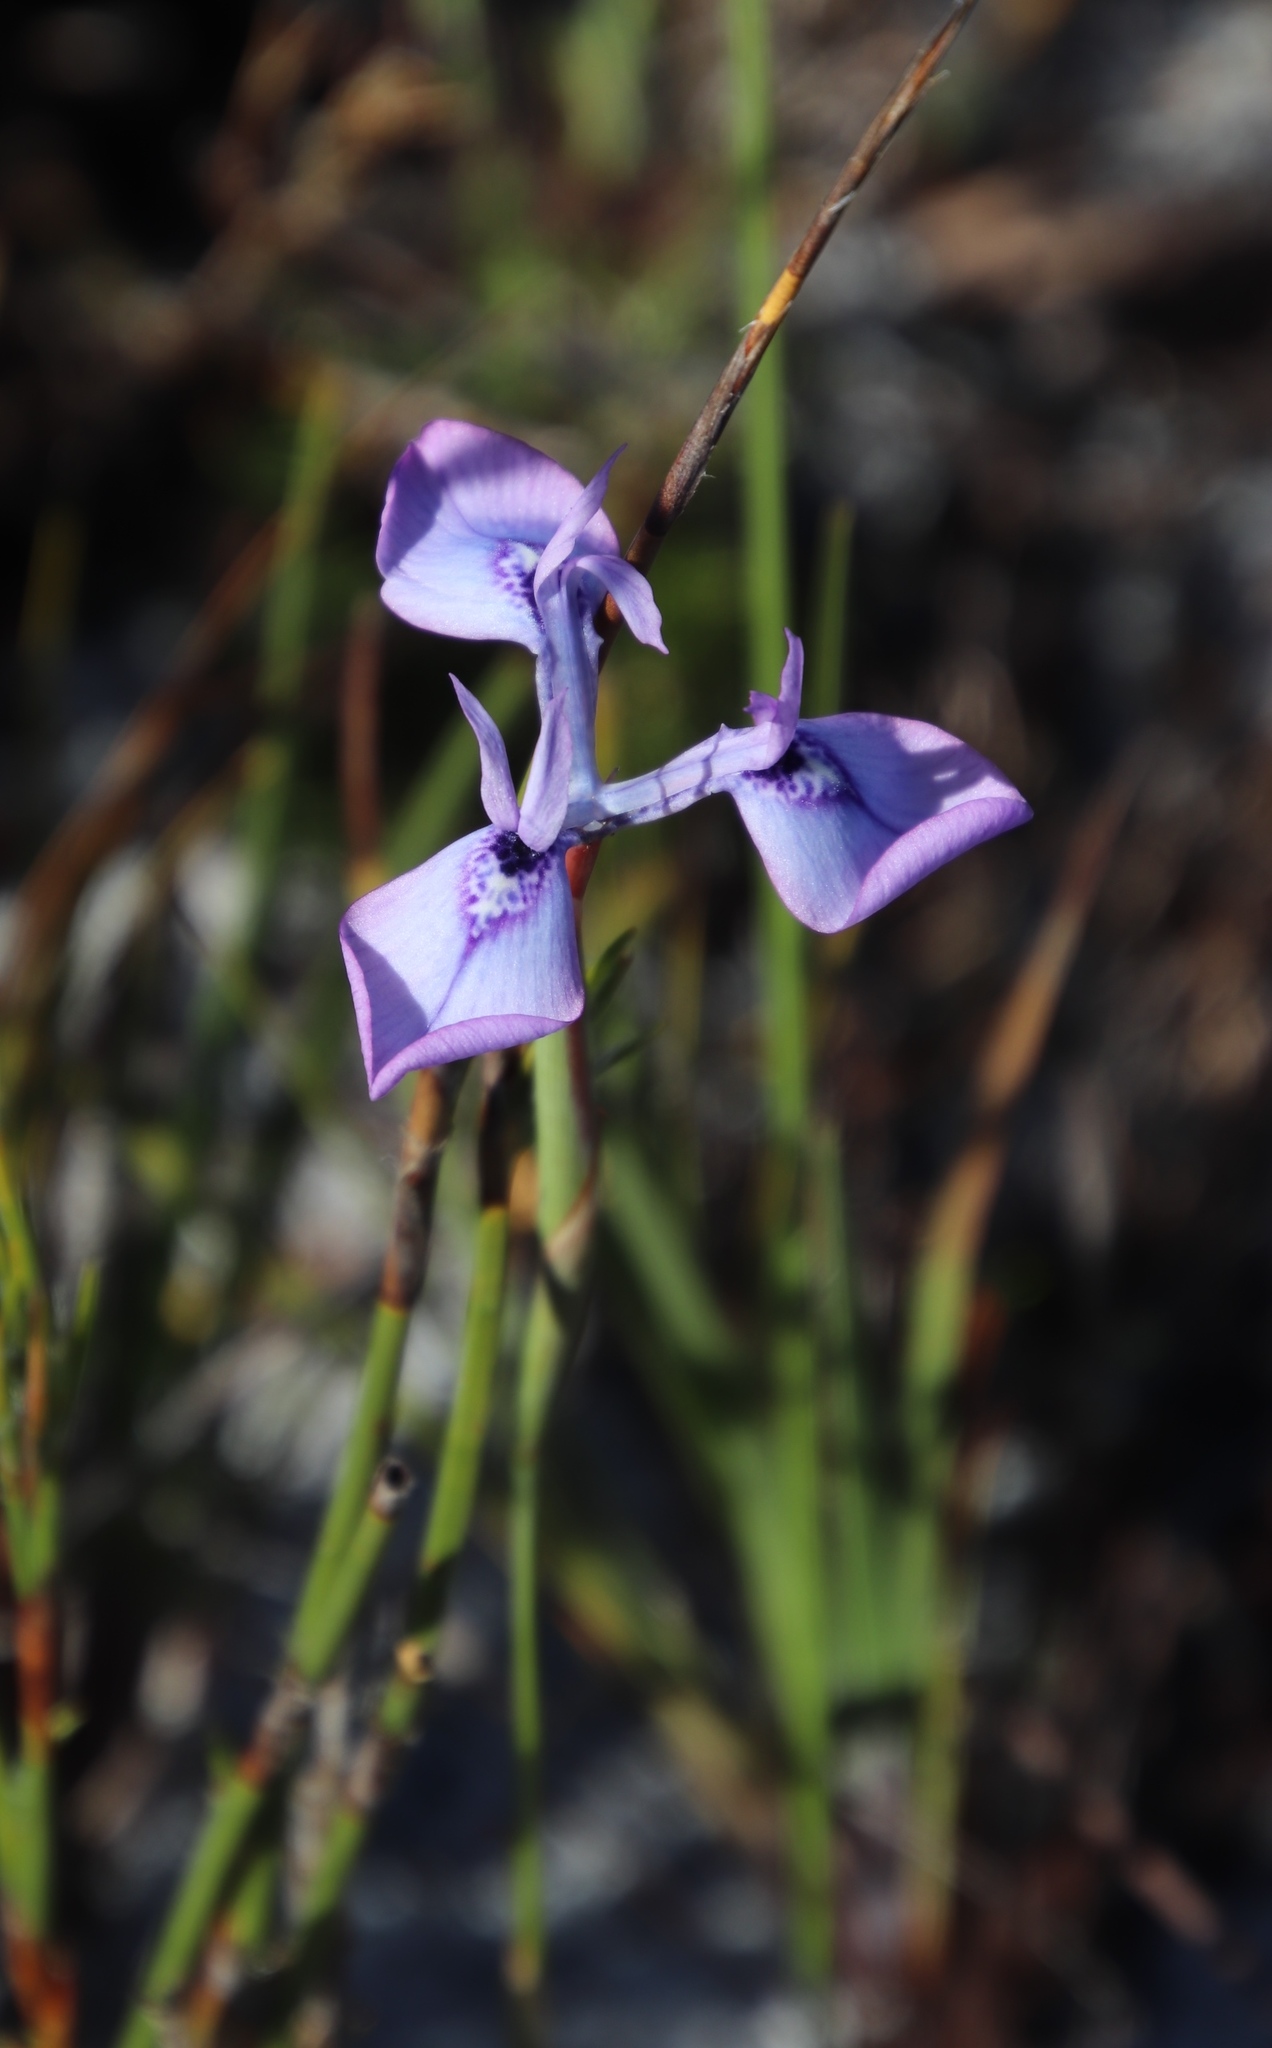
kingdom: Plantae
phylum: Tracheophyta
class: Liliopsida
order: Asparagales
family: Iridaceae
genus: Moraea
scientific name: Moraea tripetala
